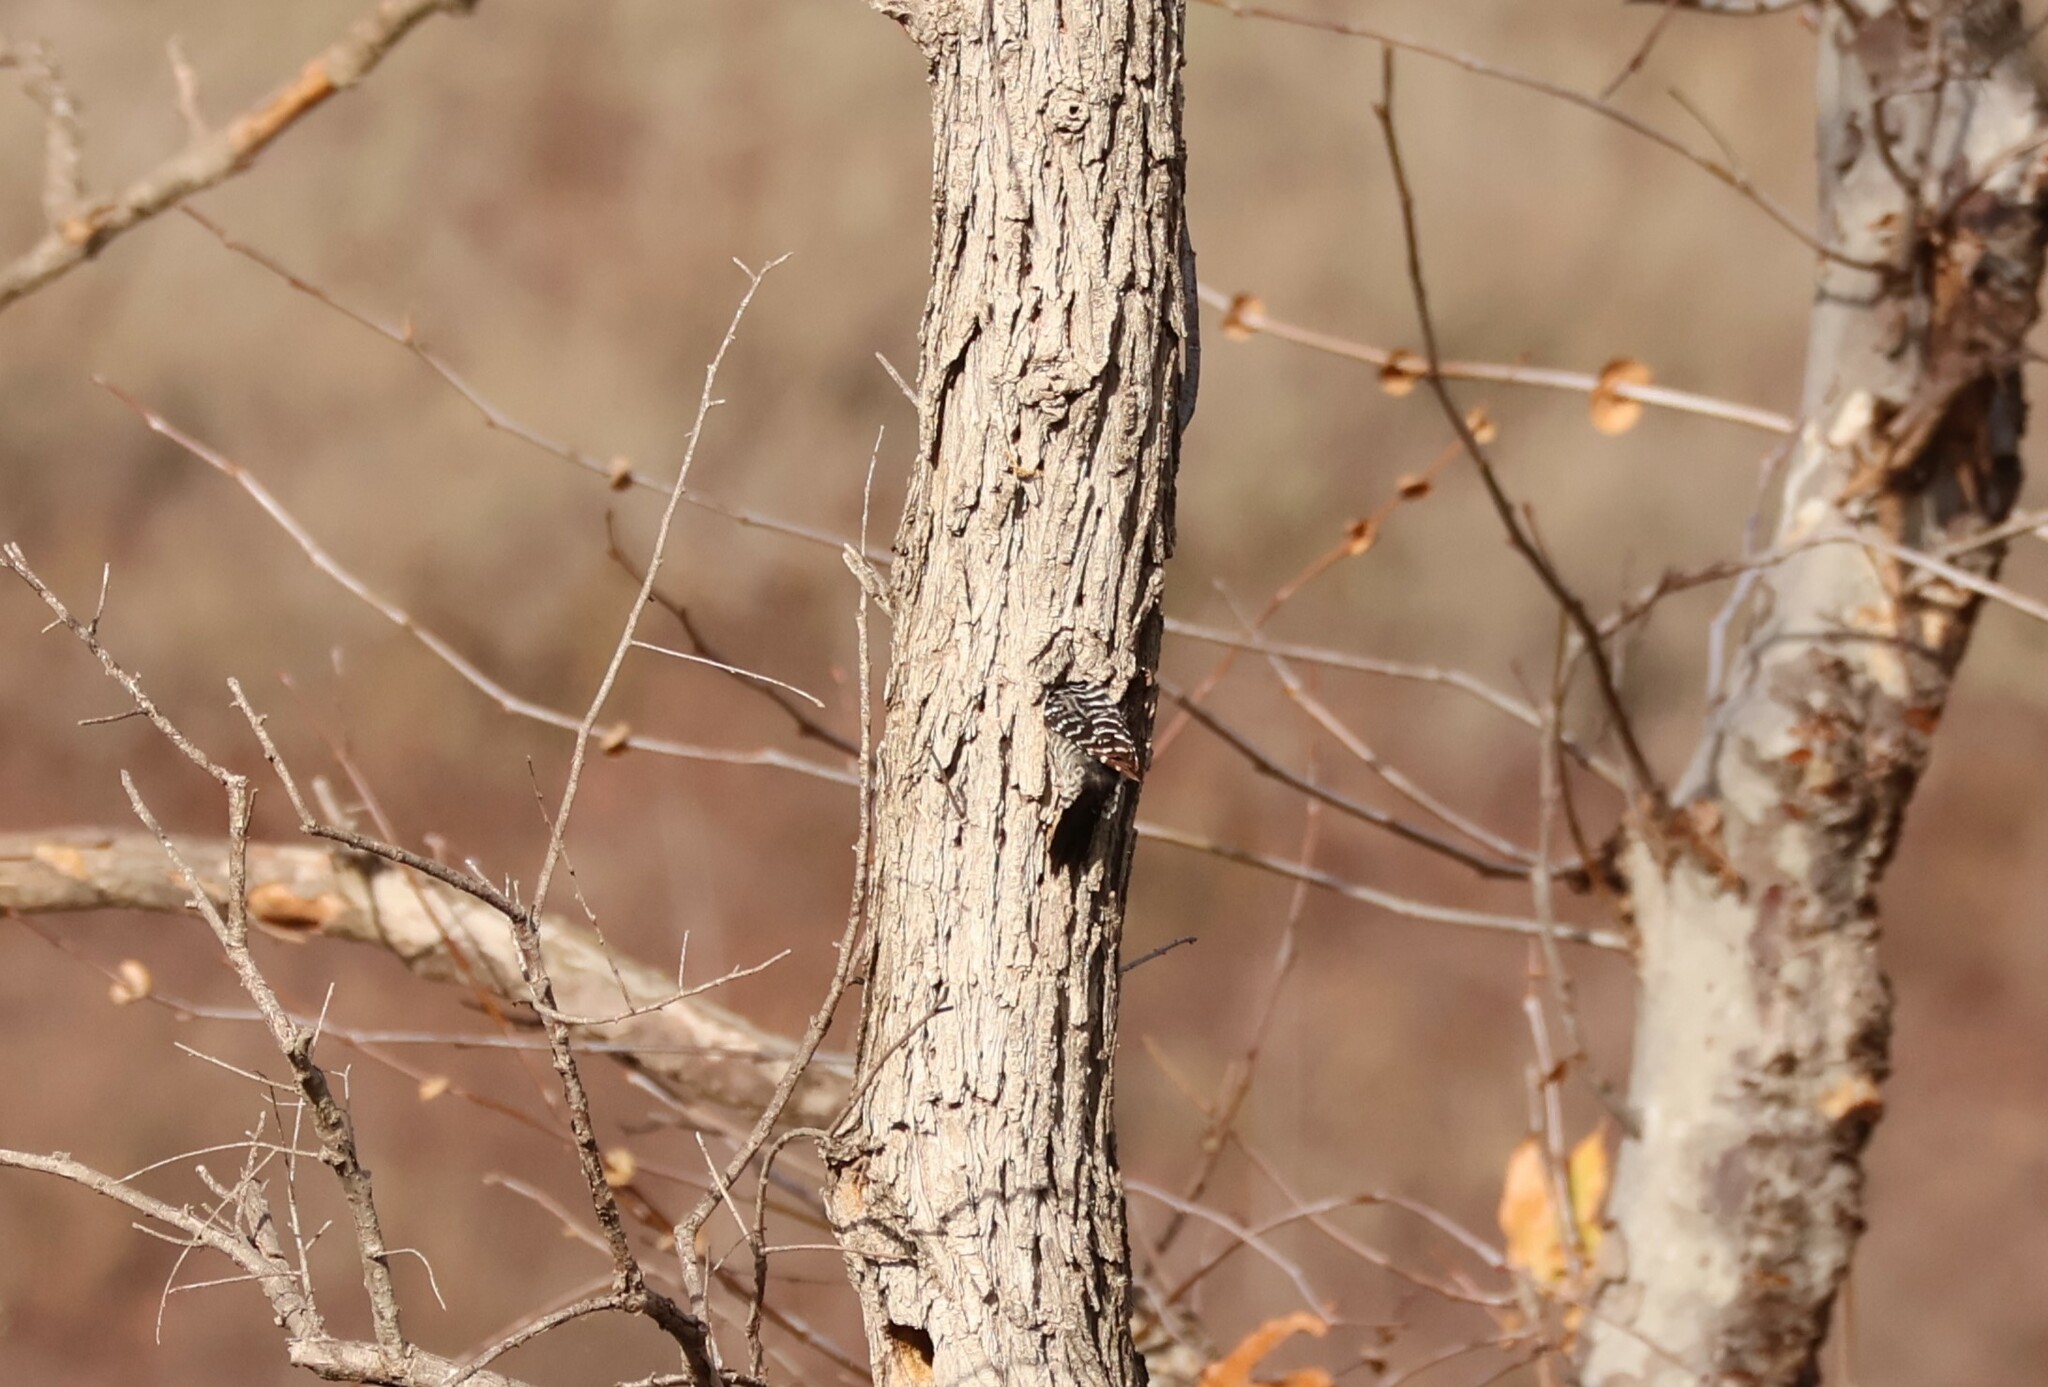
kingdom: Animalia
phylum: Chordata
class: Aves
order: Piciformes
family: Picidae
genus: Dryobates
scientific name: Dryobates nuttallii
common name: Nuttall's woodpecker
